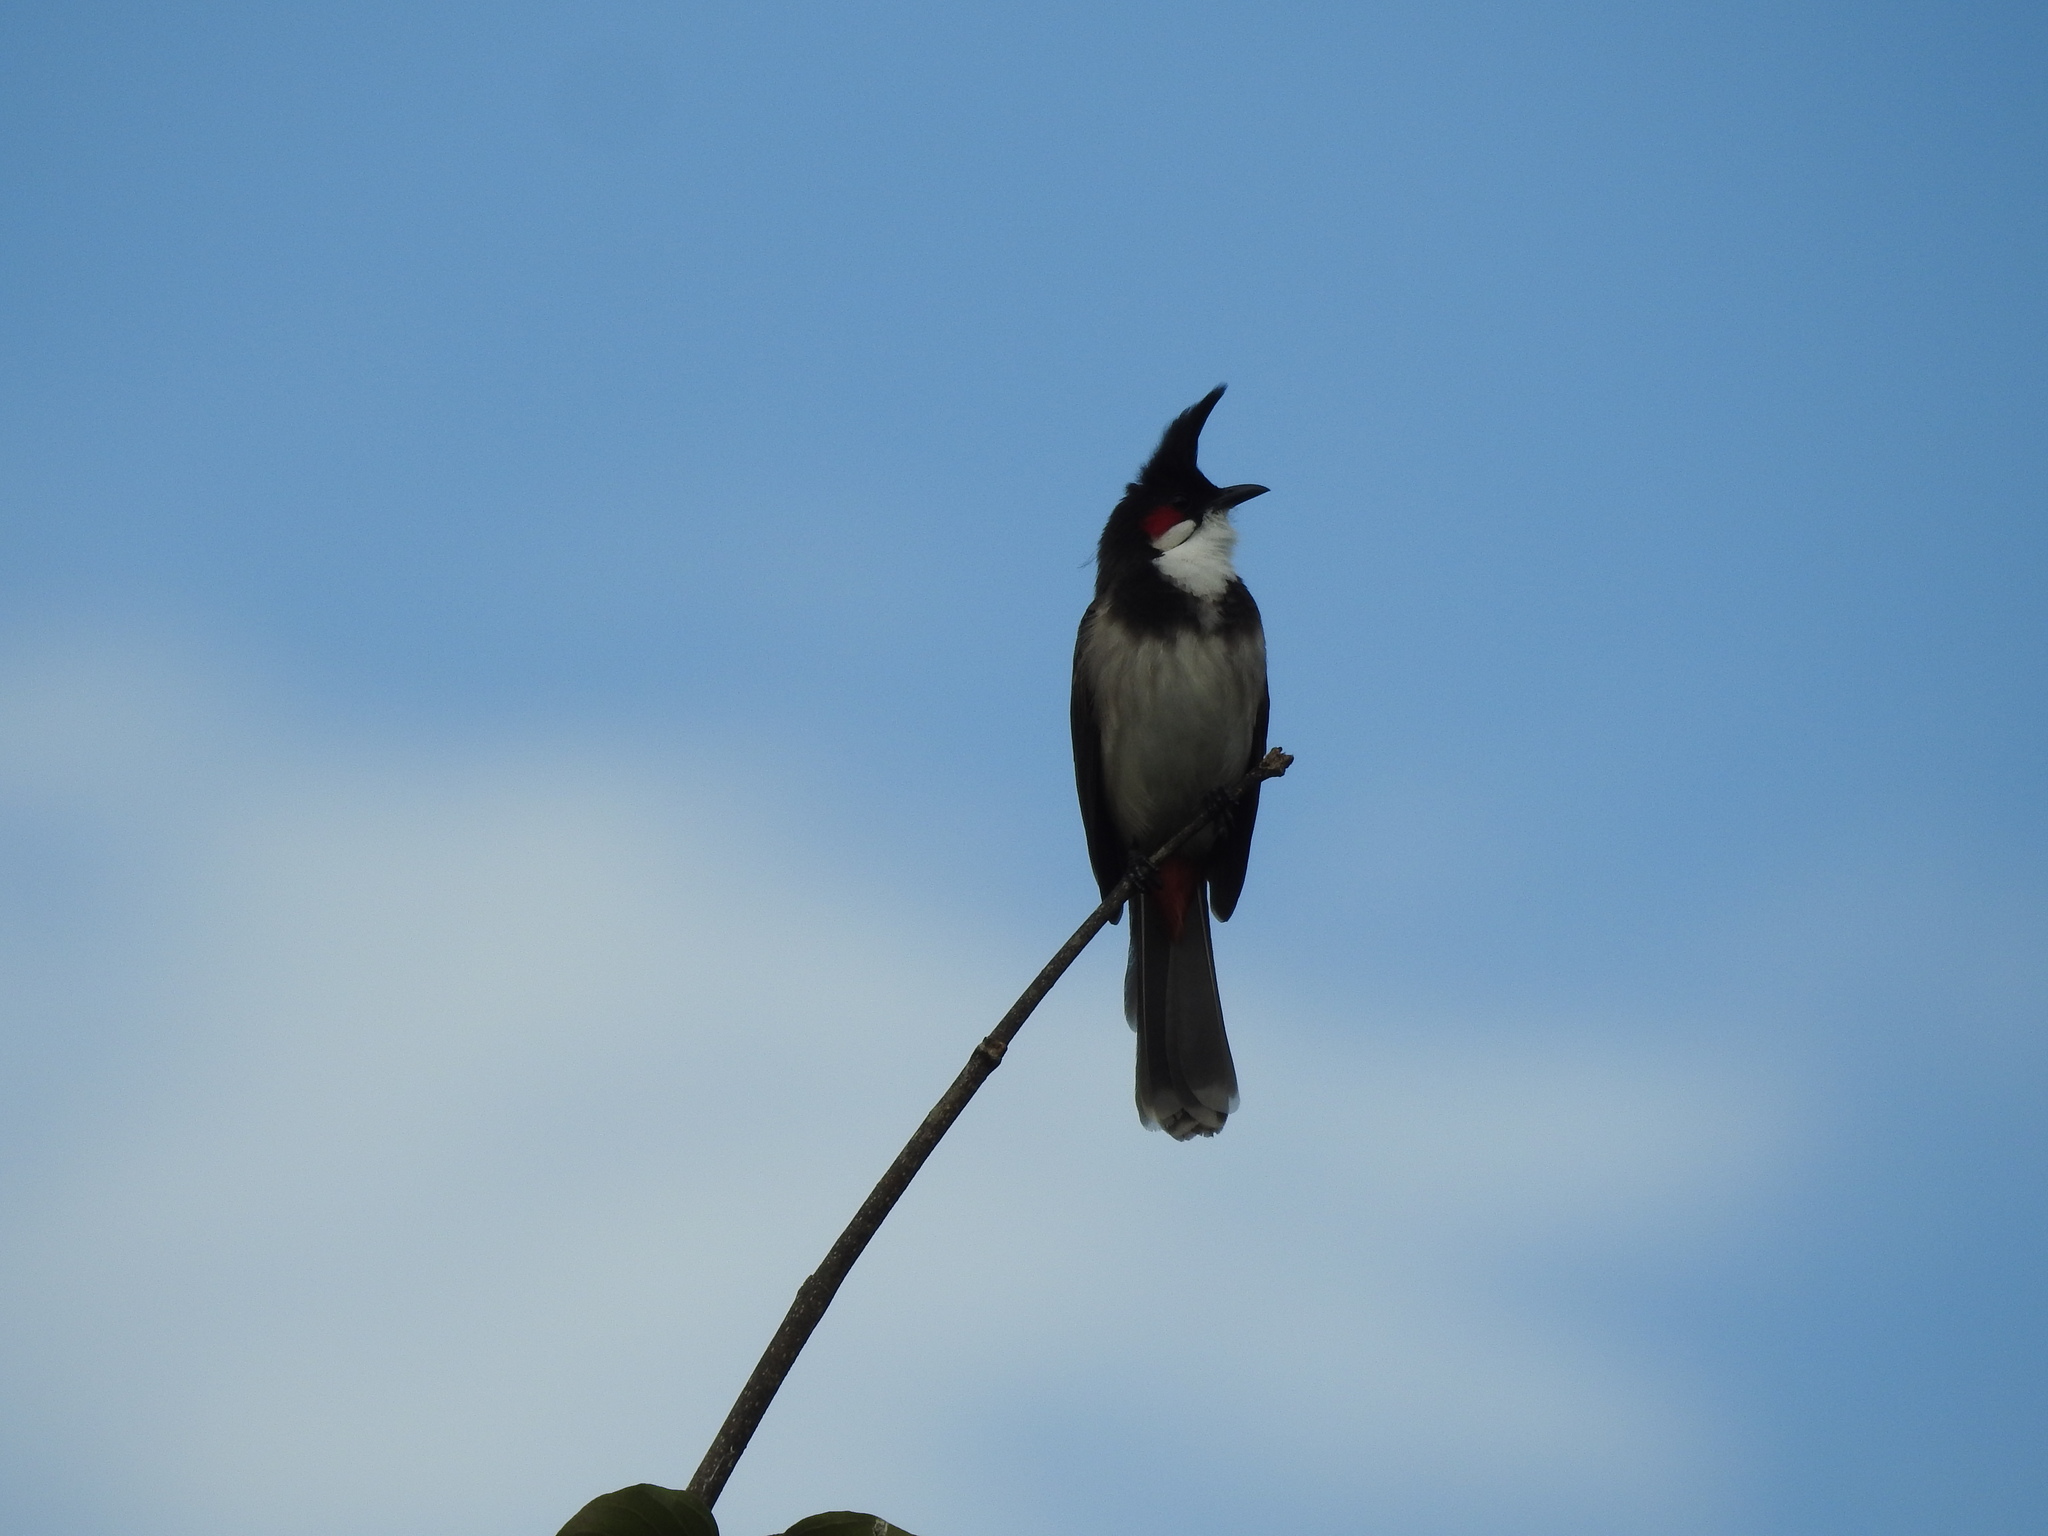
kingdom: Animalia
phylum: Chordata
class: Aves
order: Passeriformes
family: Pycnonotidae
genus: Pycnonotus
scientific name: Pycnonotus jocosus
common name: Red-whiskered bulbul
